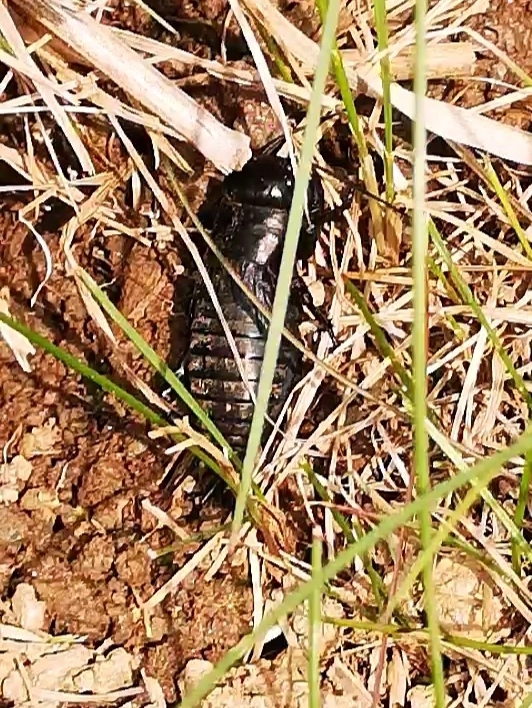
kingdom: Animalia
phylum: Arthropoda
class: Insecta
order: Orthoptera
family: Gryllidae
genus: Gryllus
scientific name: Gryllus campestris
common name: Field cricket
